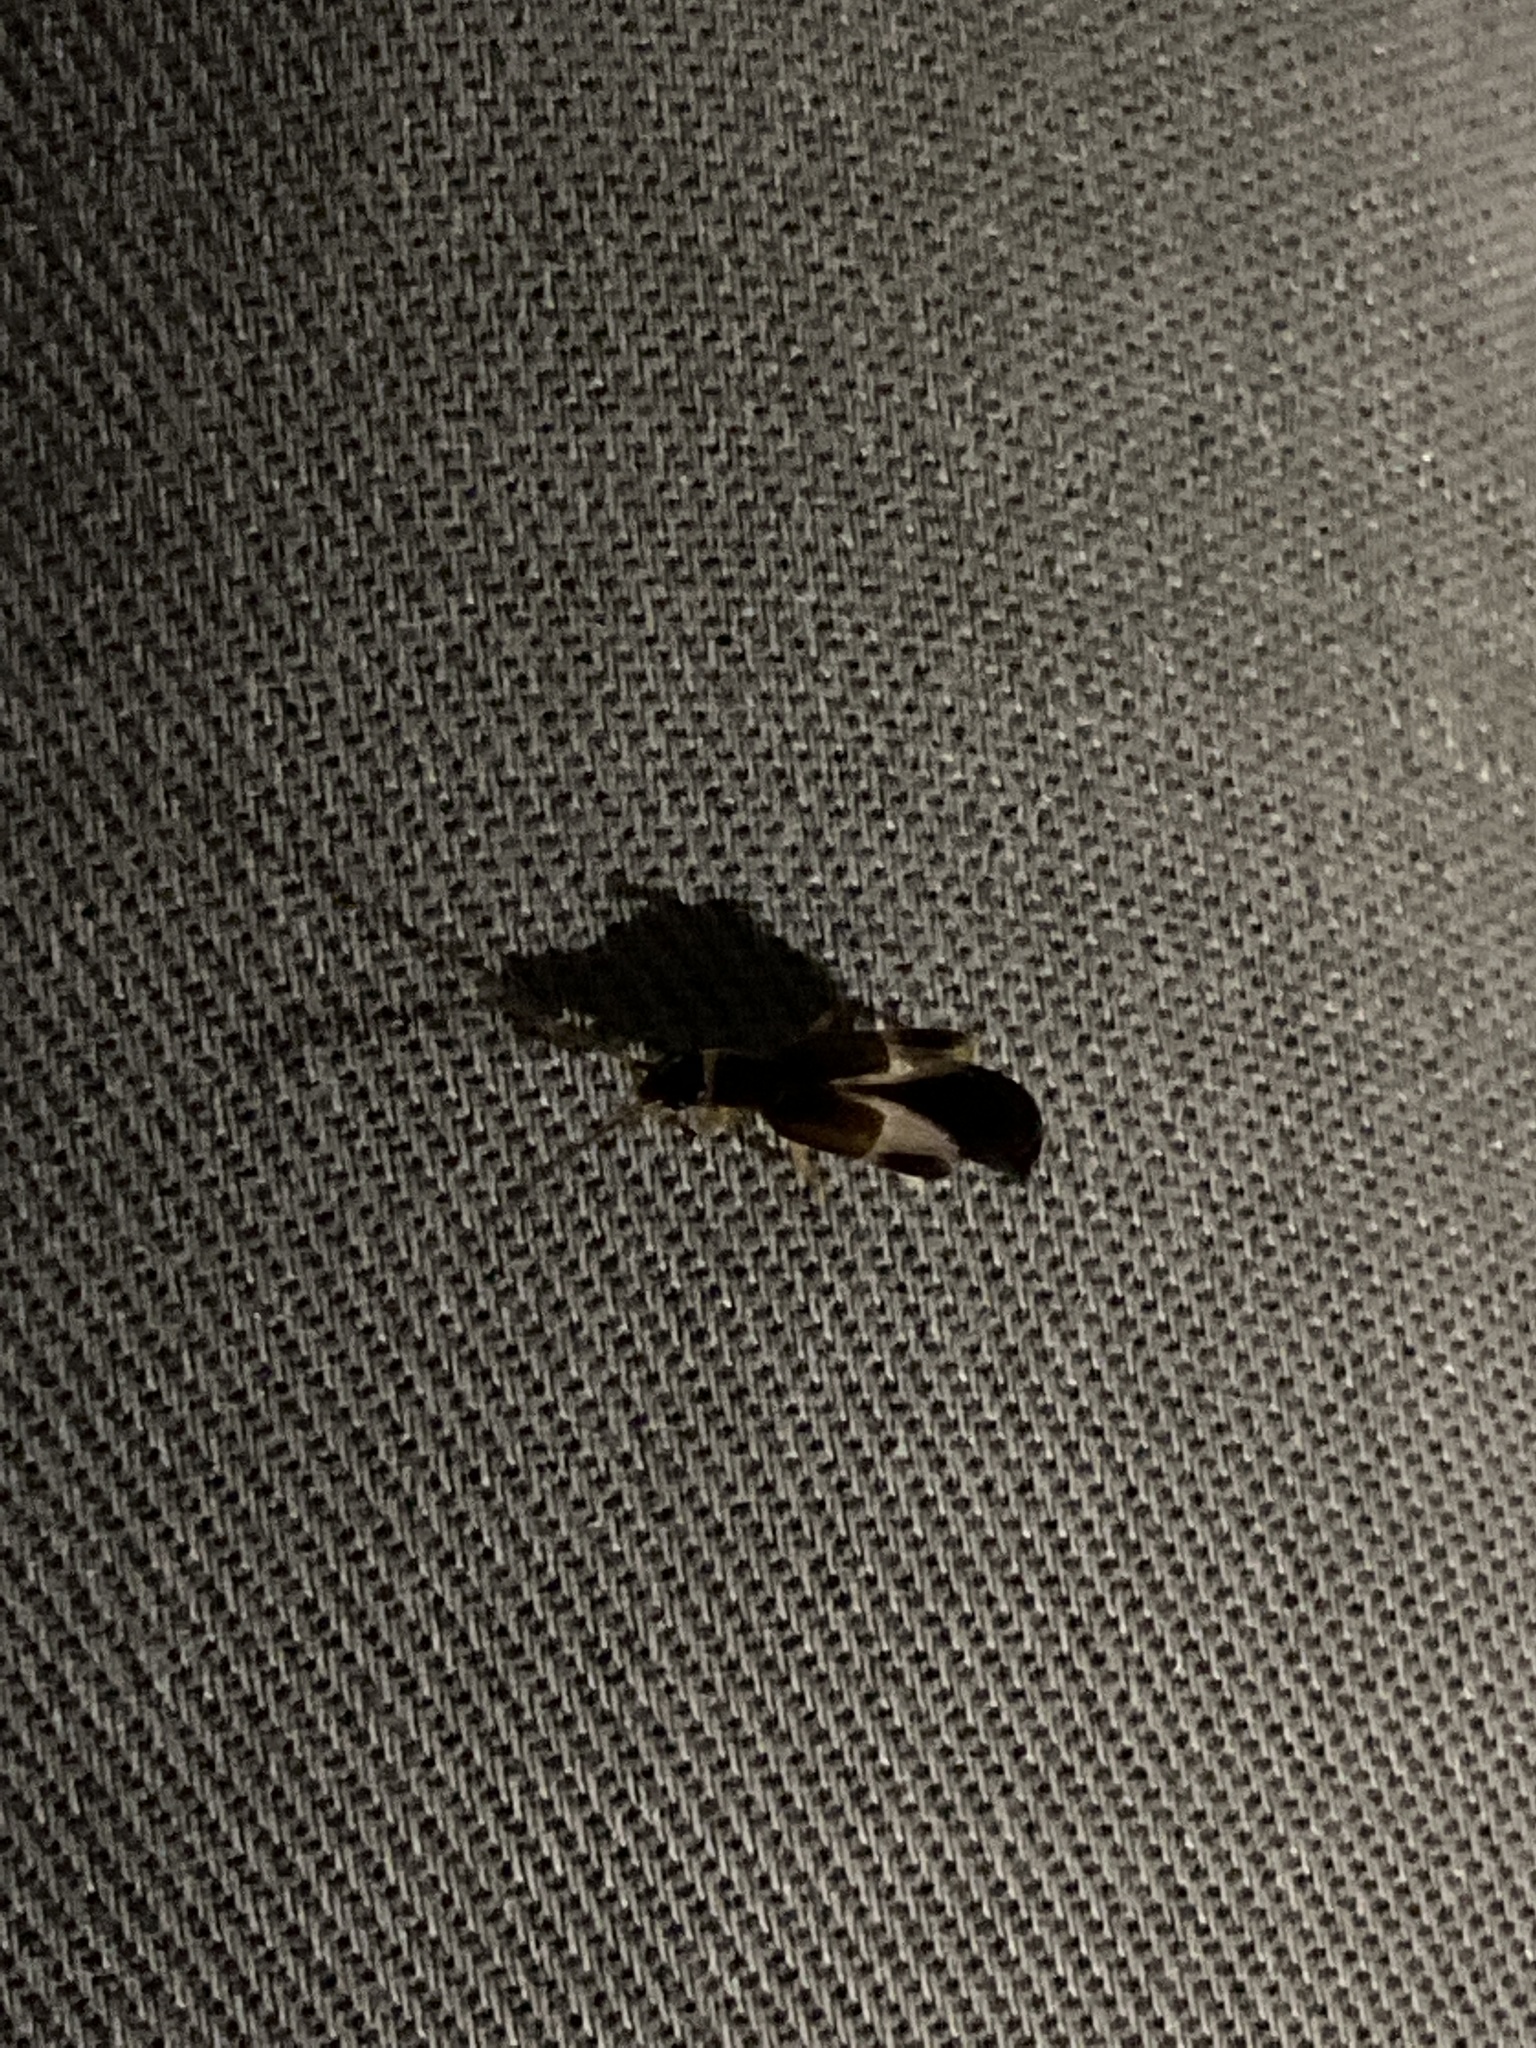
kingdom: Animalia
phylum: Arthropoda
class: Insecta
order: Dermaptera
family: Anisolabididae
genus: Euborellia
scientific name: Euborellia cincticollis
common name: African earwig
